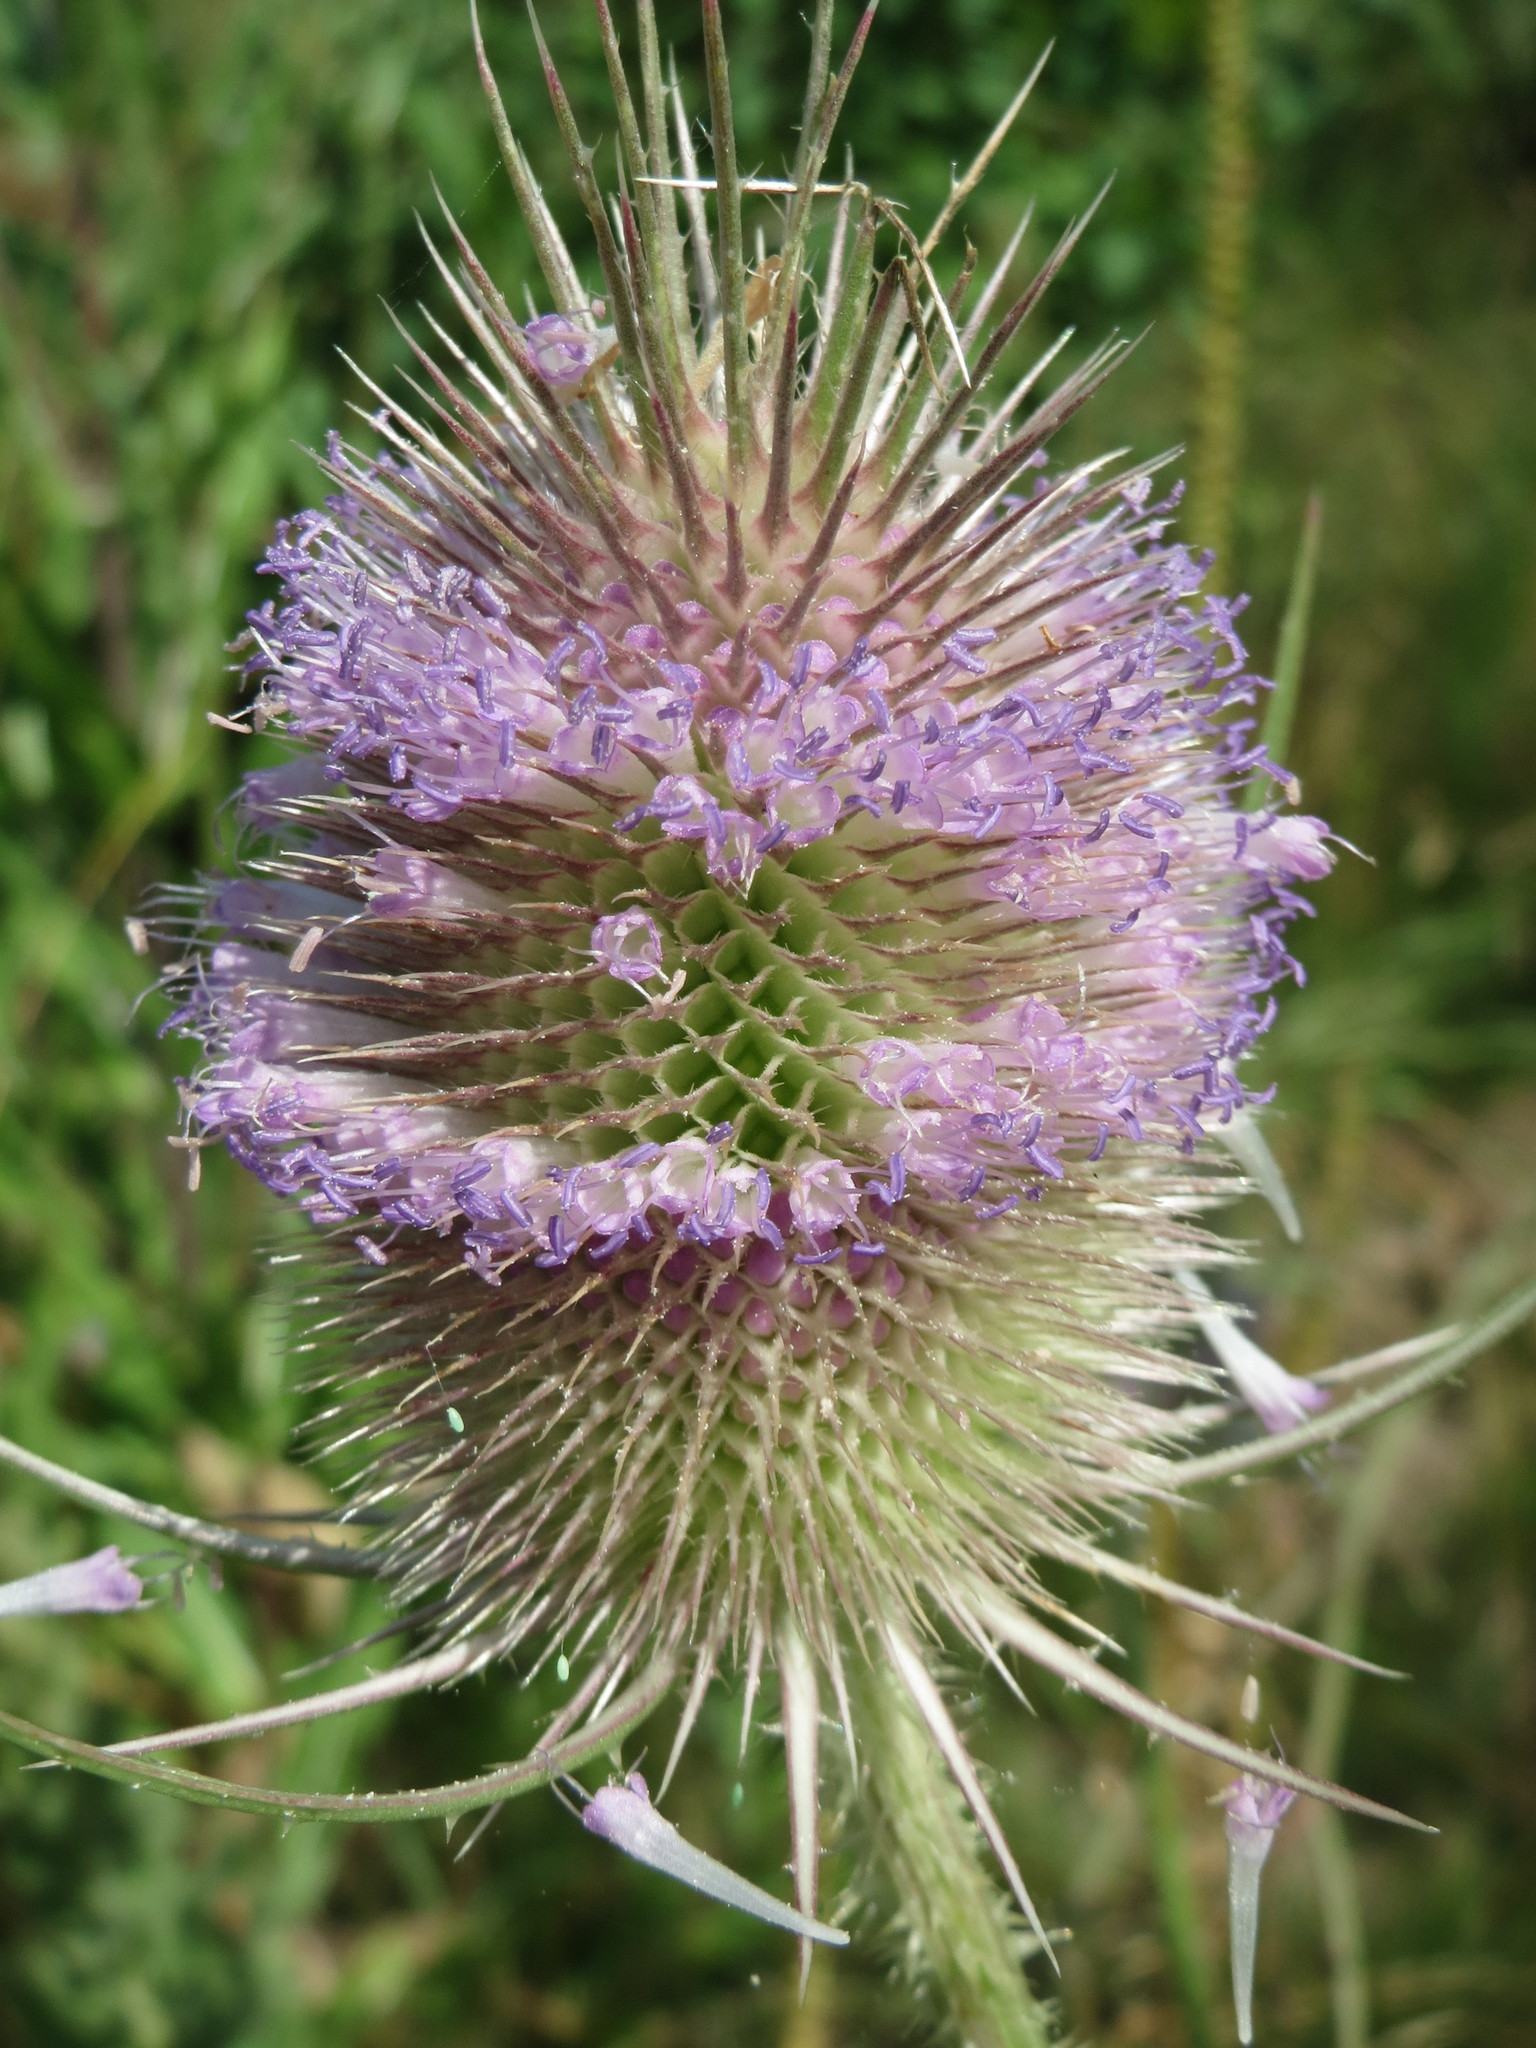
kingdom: Plantae
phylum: Tracheophyta
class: Magnoliopsida
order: Dipsacales
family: Caprifoliaceae
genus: Dipsacus
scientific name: Dipsacus fullonum
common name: Teasel
